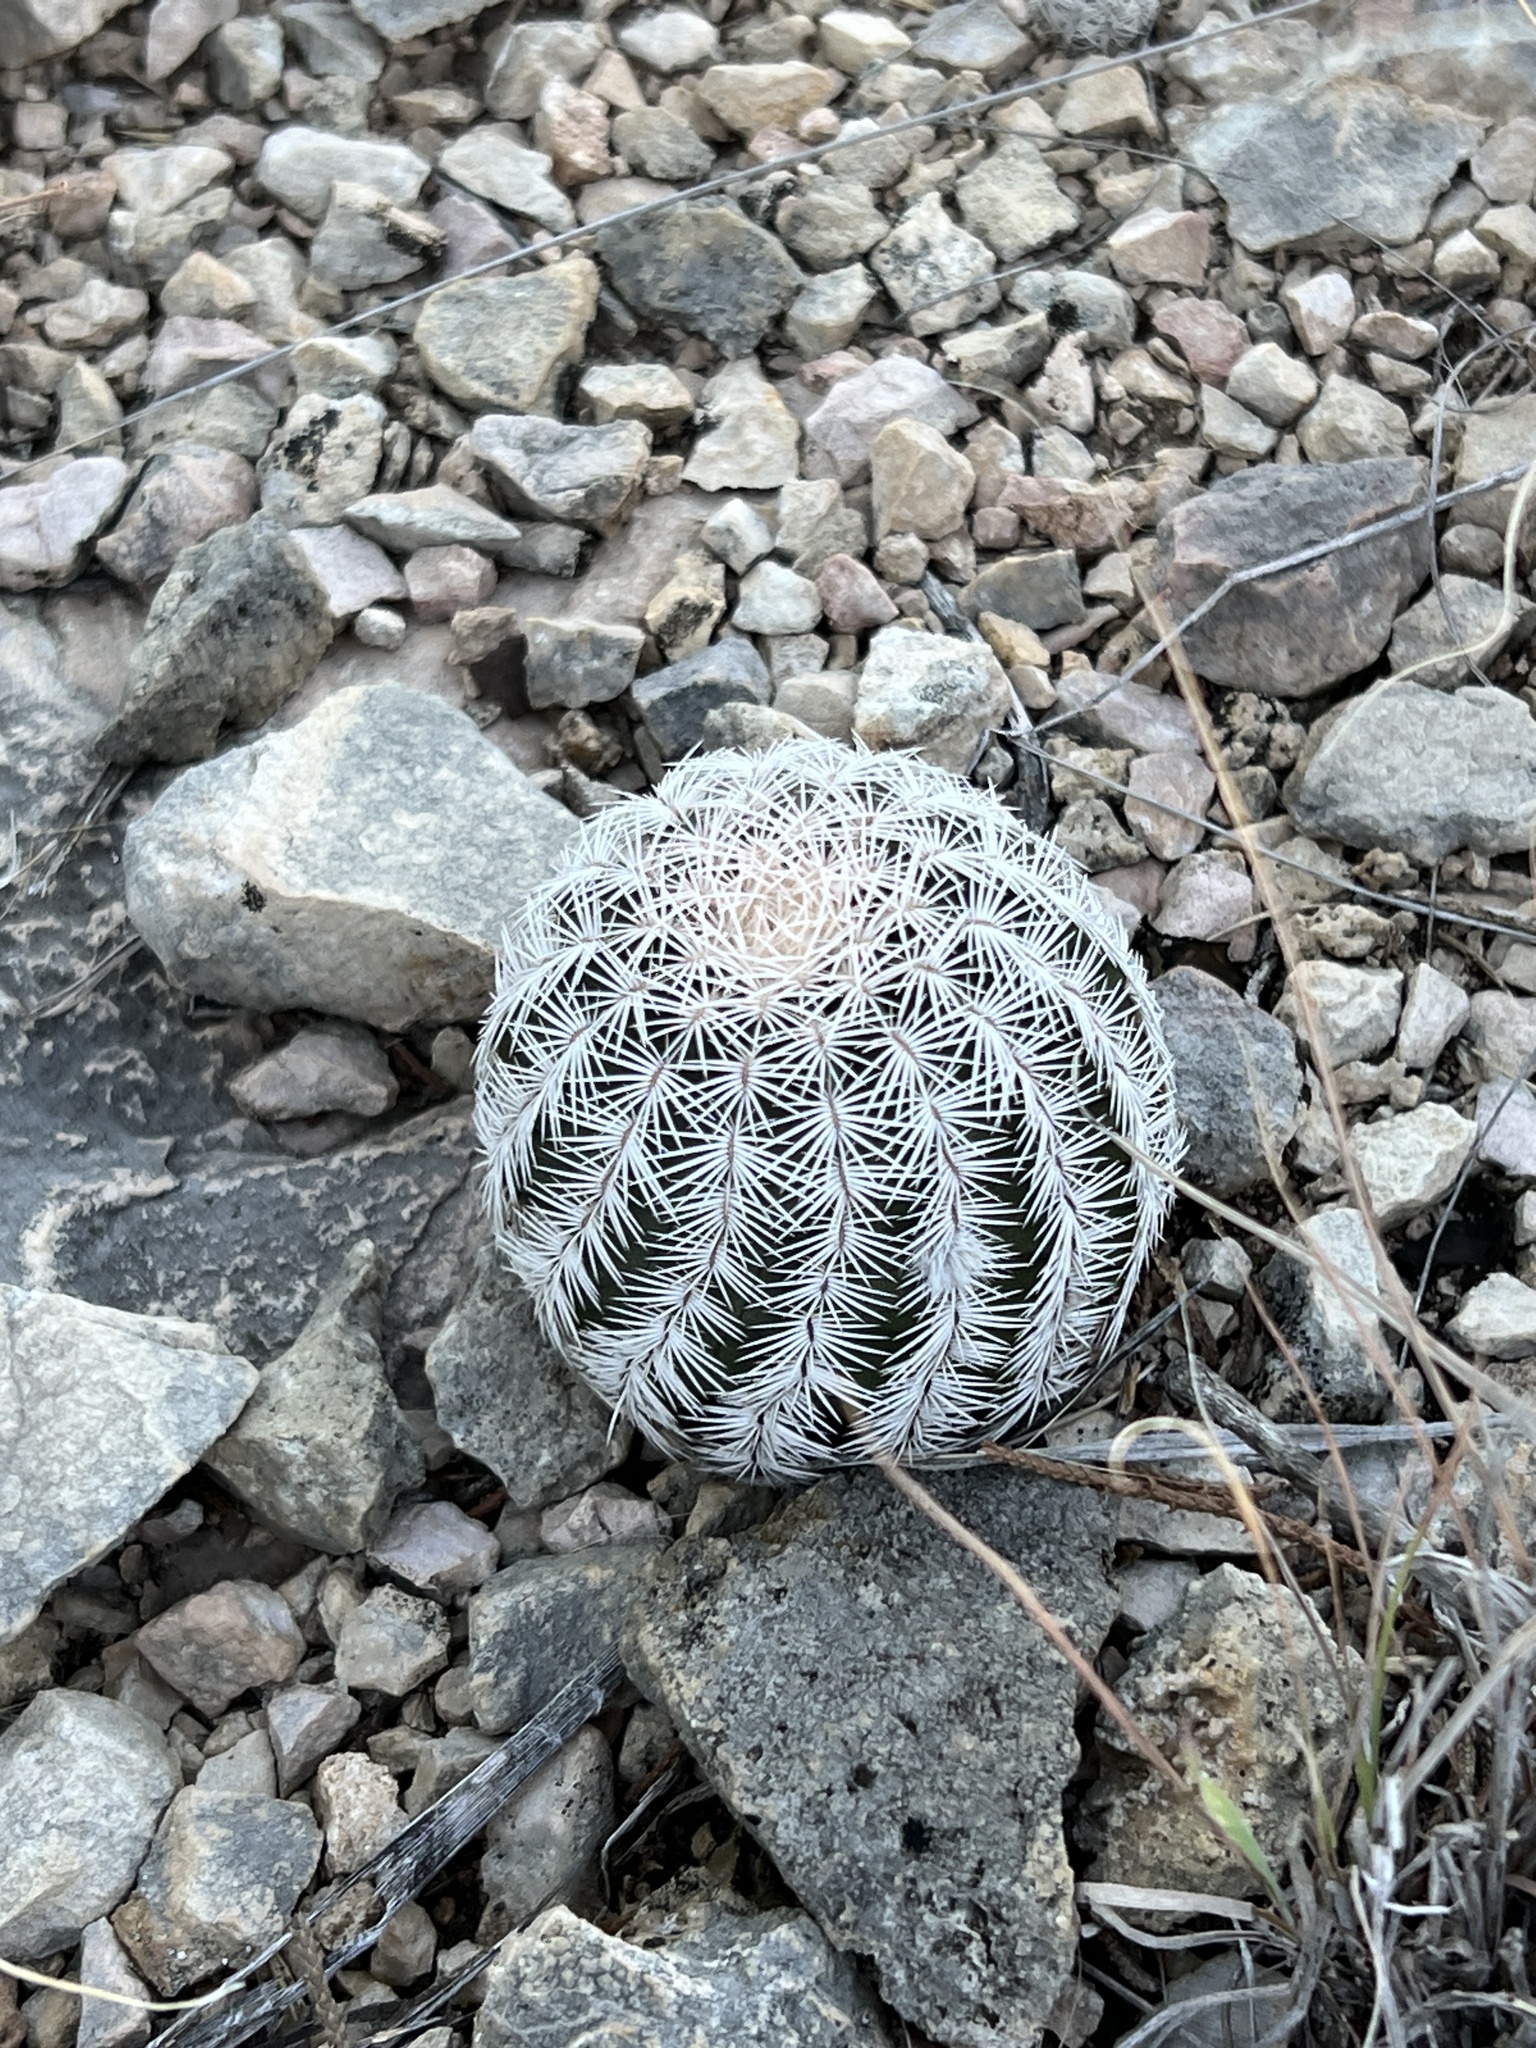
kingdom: Plantae
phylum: Tracheophyta
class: Magnoliopsida
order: Caryophyllales
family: Cactaceae
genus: Echinocereus
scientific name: Echinocereus reichenbachii
